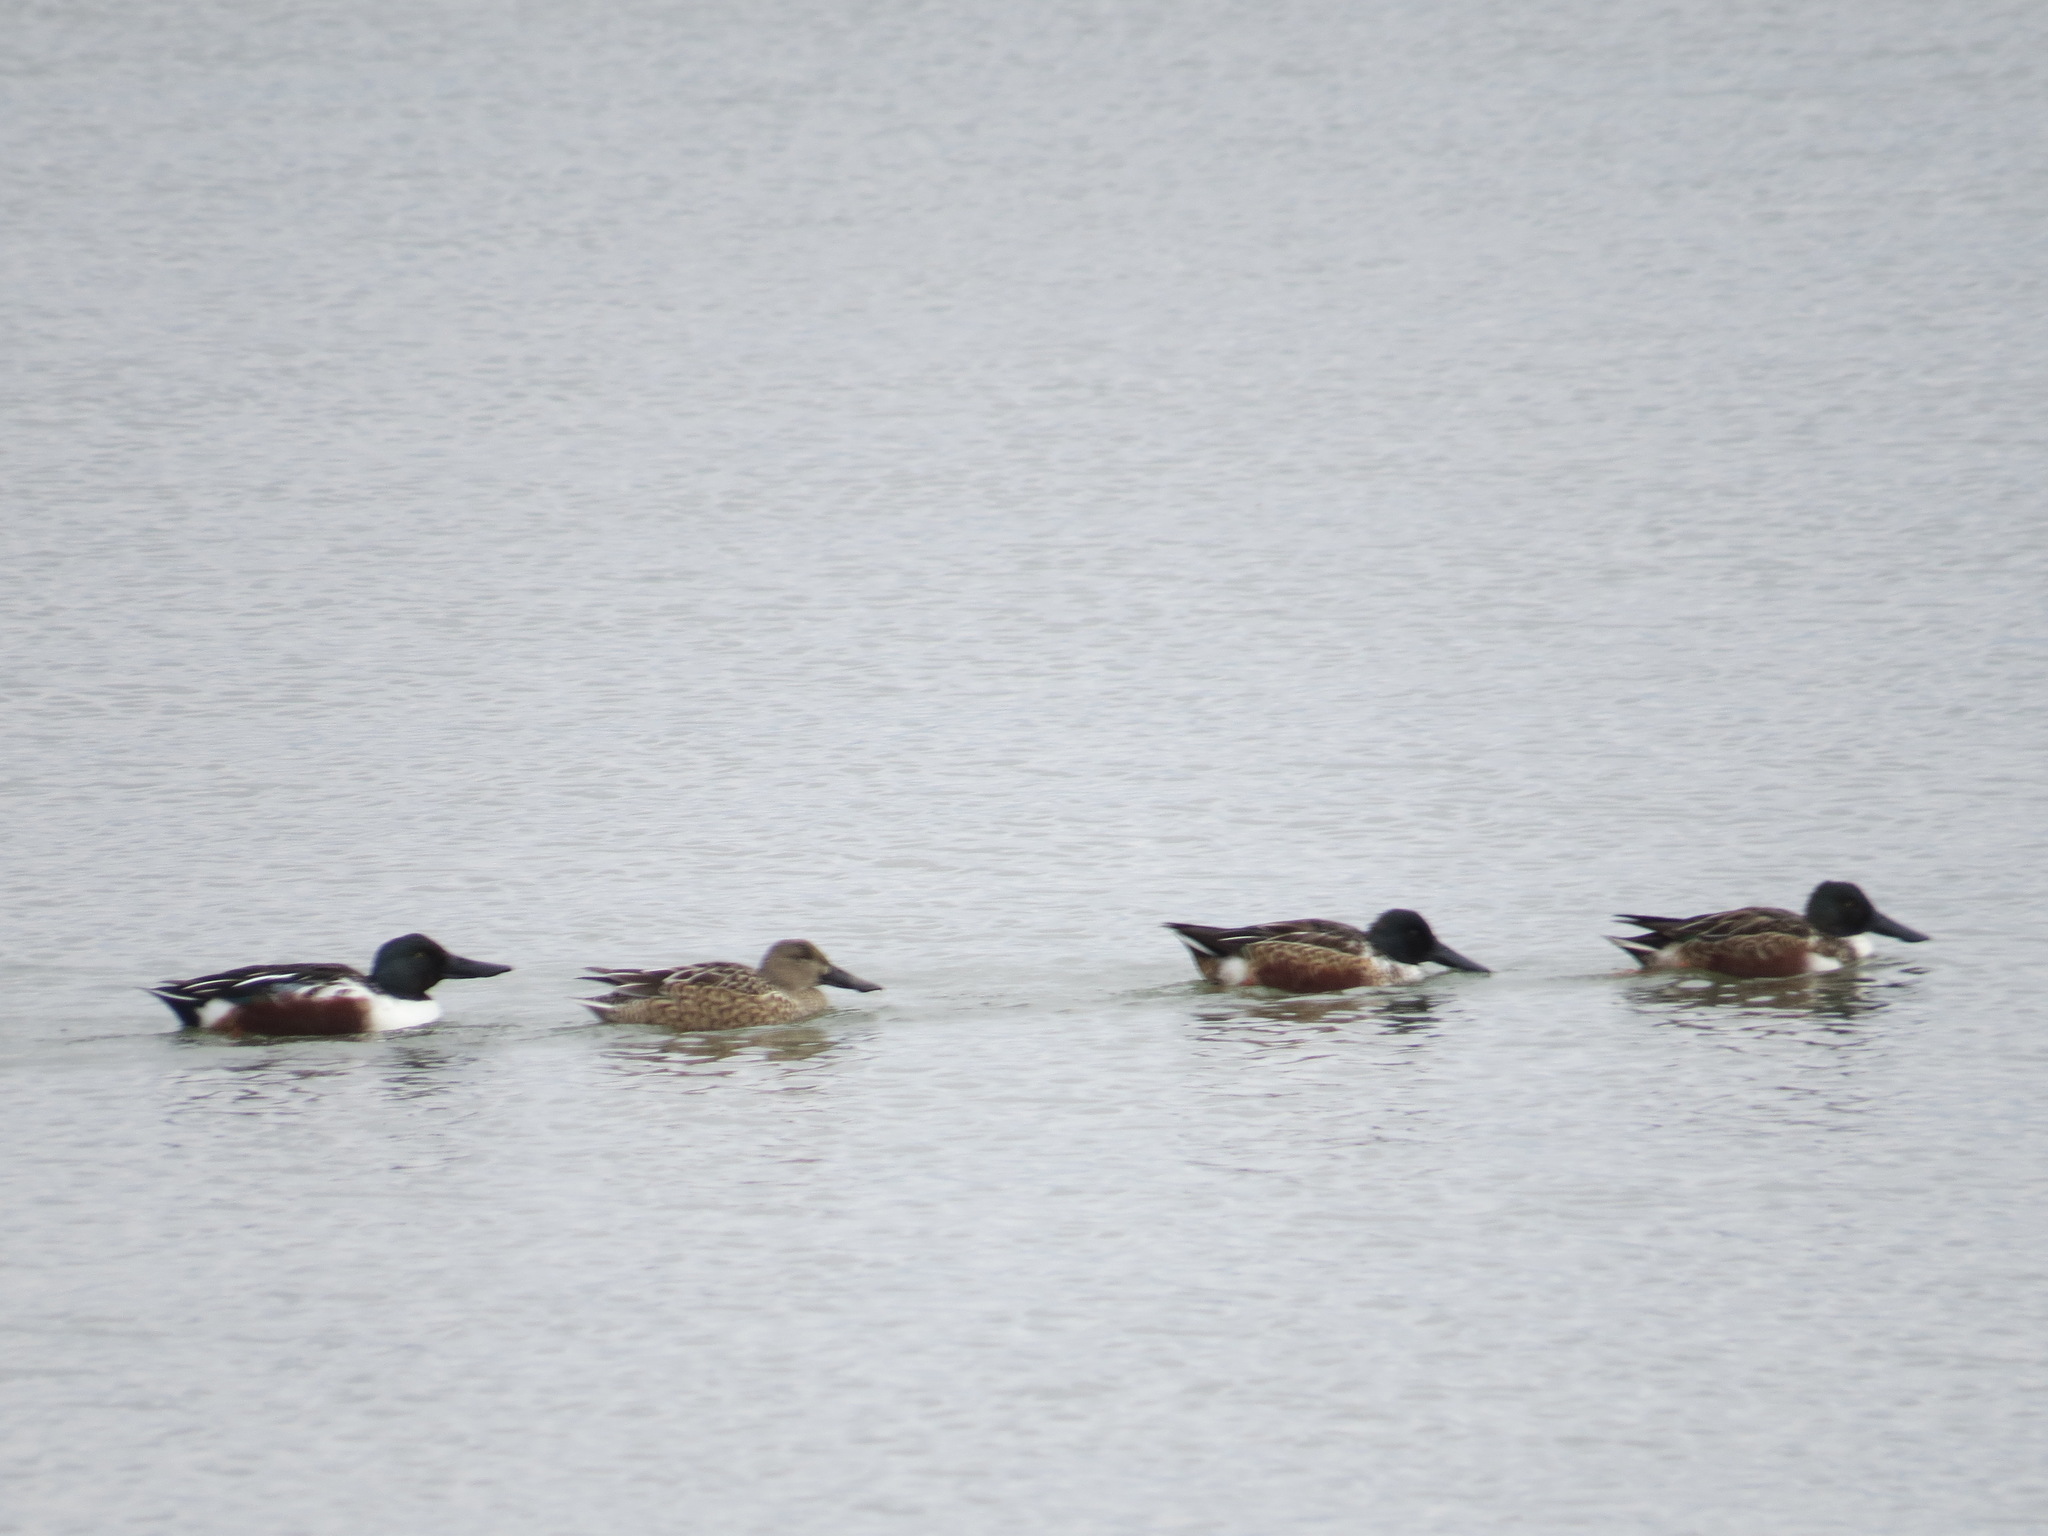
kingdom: Animalia
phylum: Chordata
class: Aves
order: Anseriformes
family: Anatidae
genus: Spatula
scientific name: Spatula clypeata
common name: Northern shoveler
